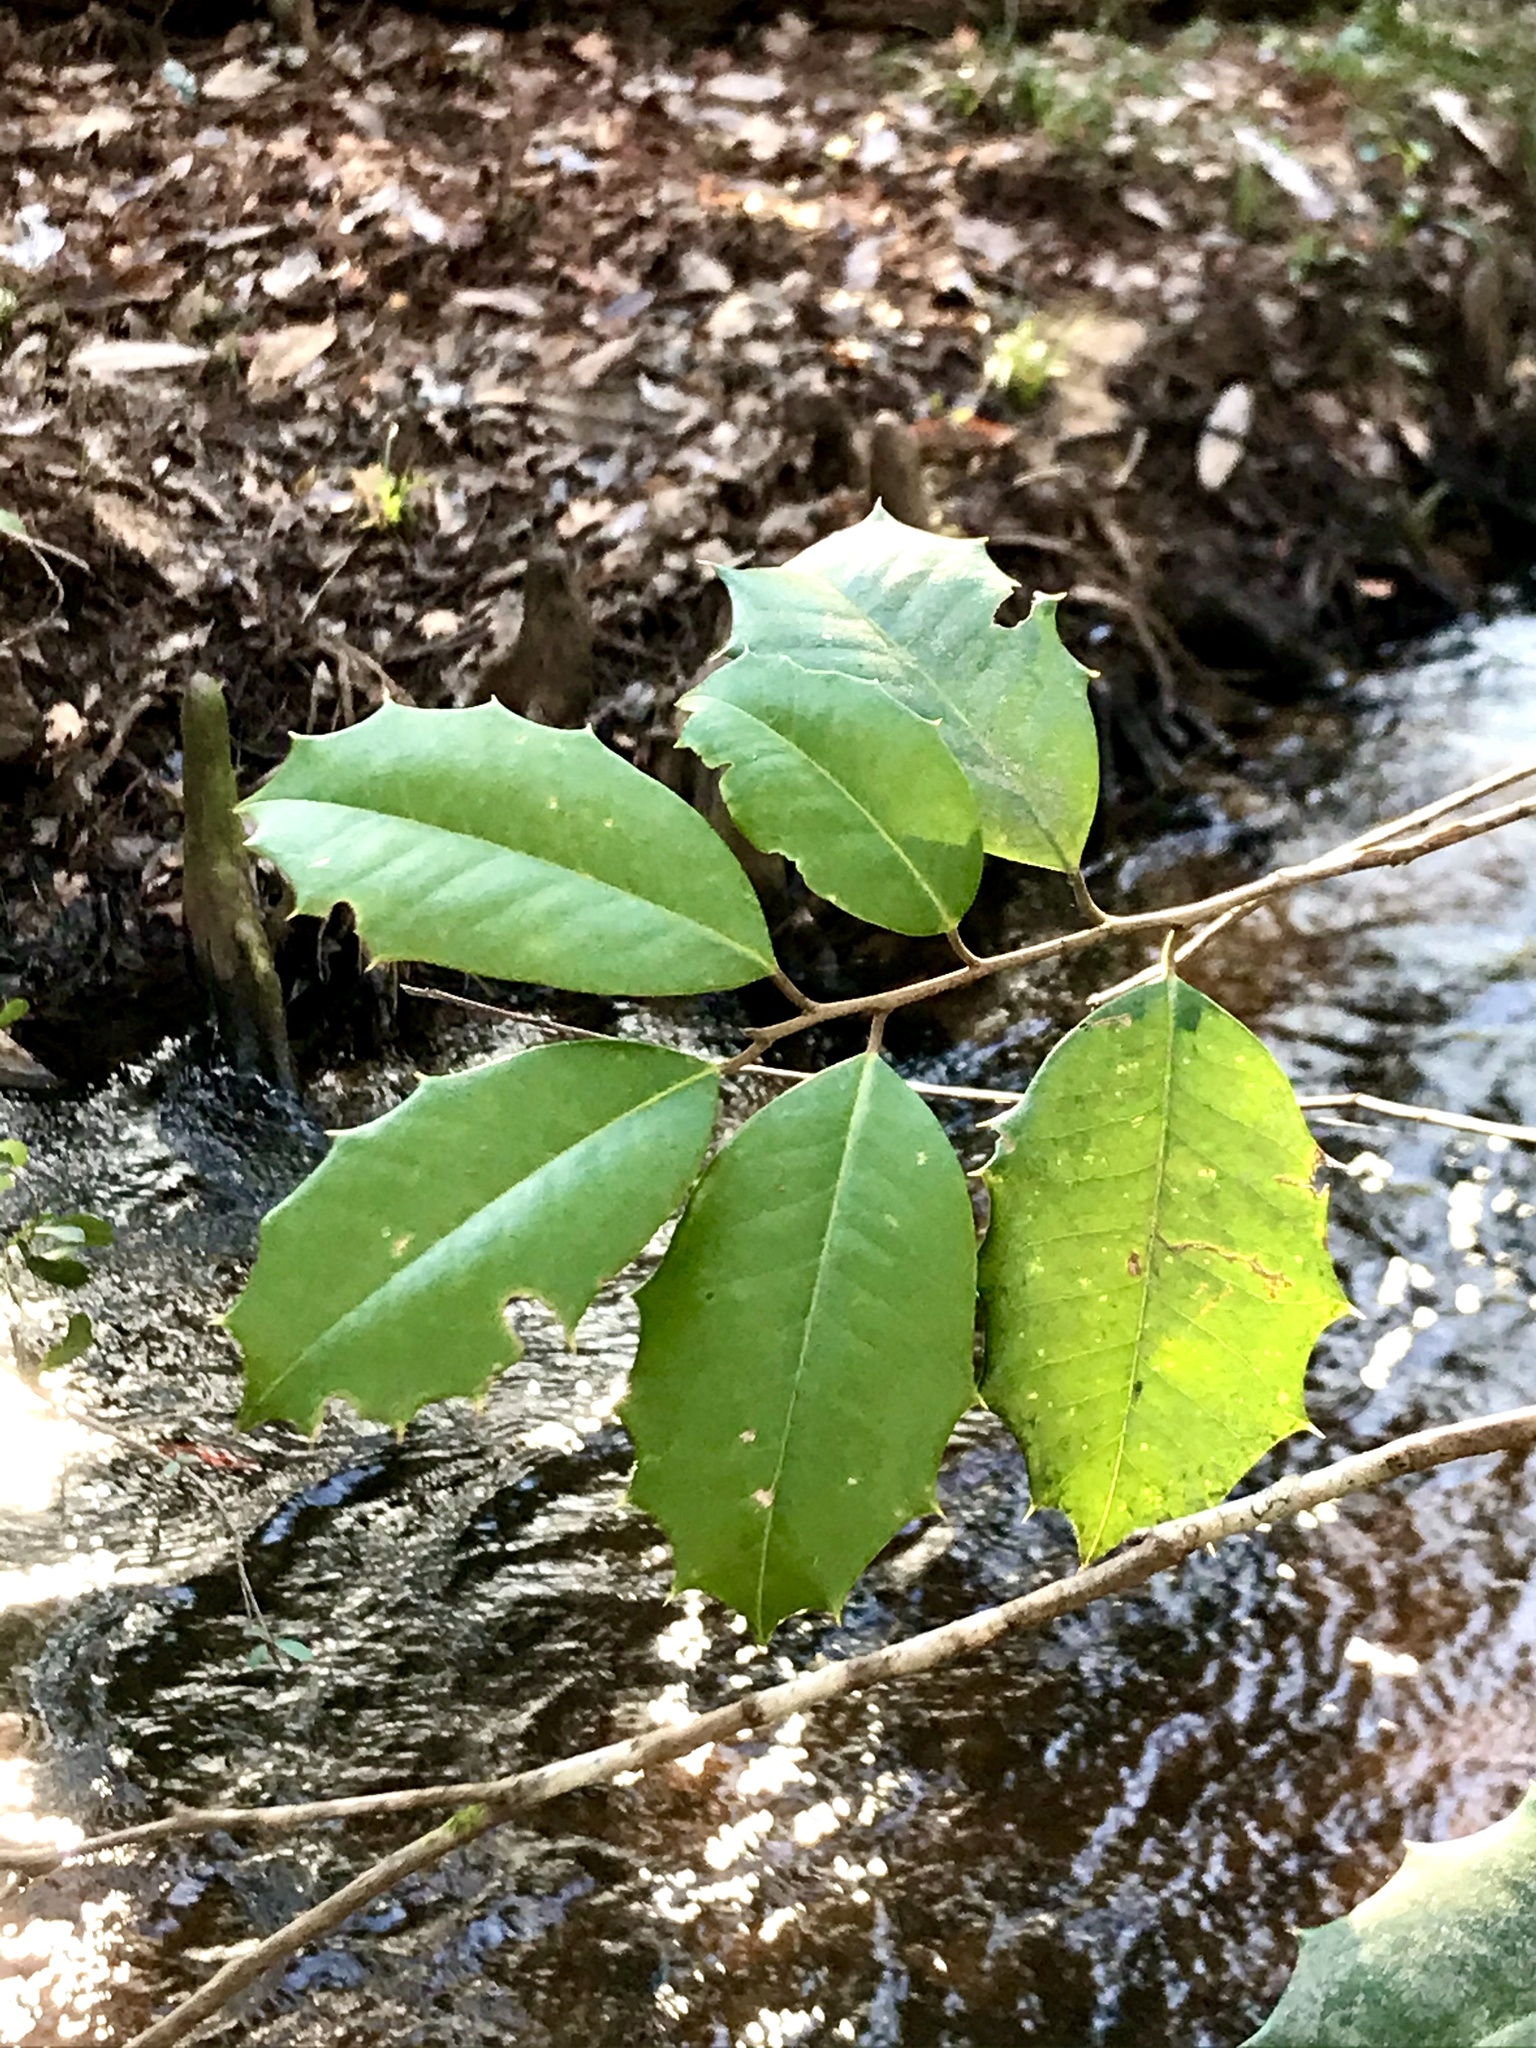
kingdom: Plantae
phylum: Tracheophyta
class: Magnoliopsida
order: Aquifoliales
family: Aquifoliaceae
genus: Ilex
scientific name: Ilex opaca
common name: American holly
